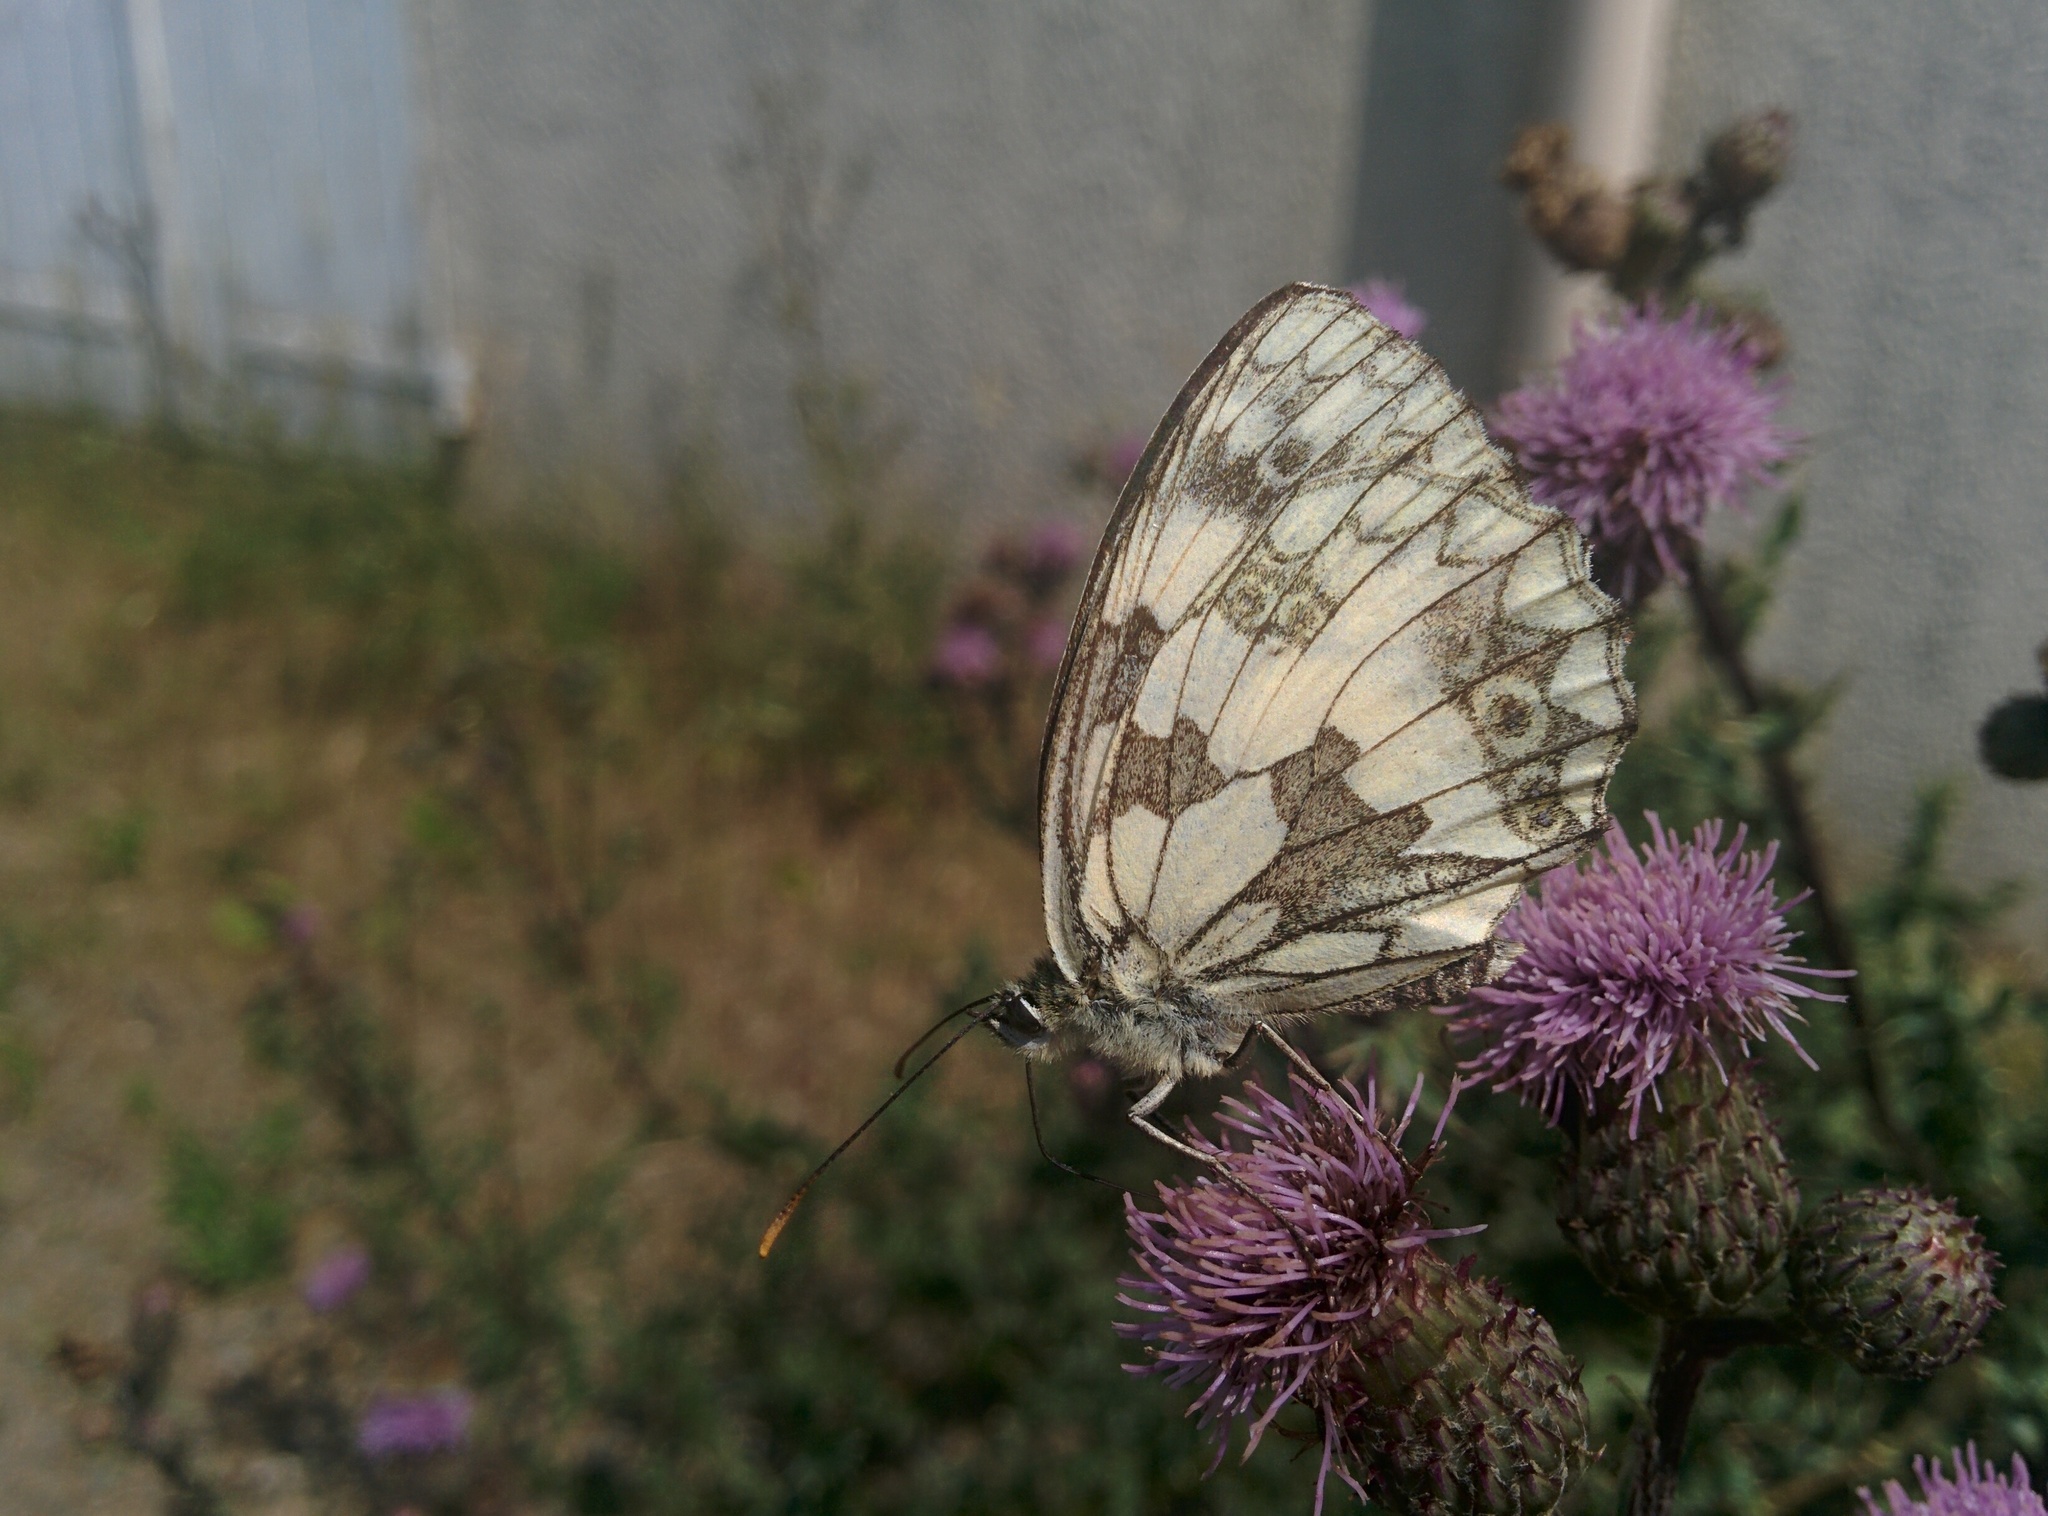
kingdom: Animalia
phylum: Arthropoda
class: Insecta
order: Lepidoptera
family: Nymphalidae
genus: Melanargia
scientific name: Melanargia galathea
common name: Marbled white
